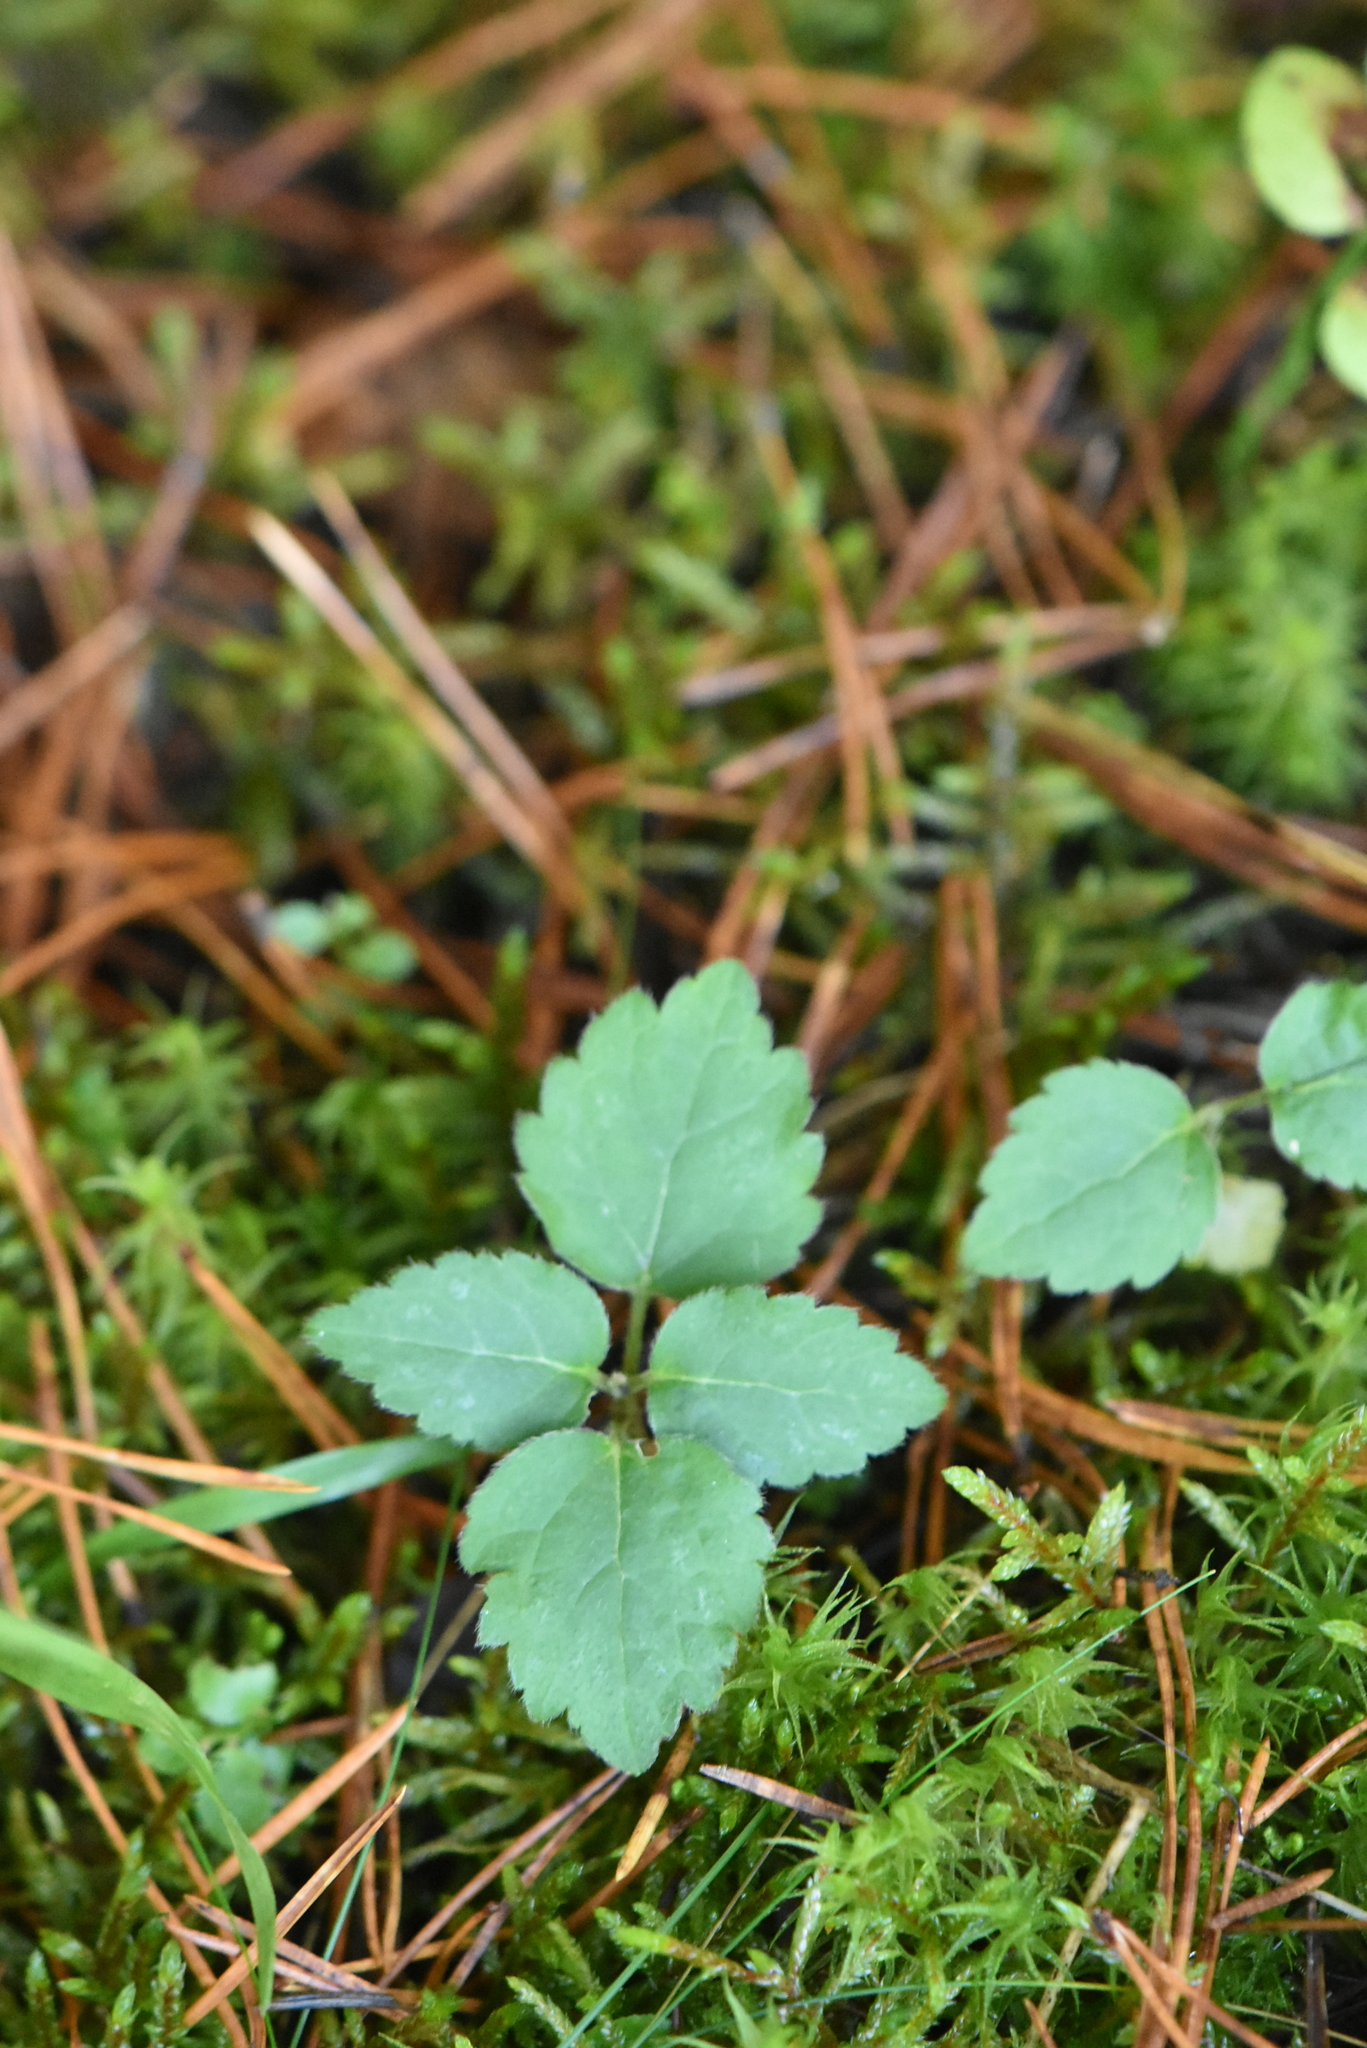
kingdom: Plantae
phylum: Tracheophyta
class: Magnoliopsida
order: Lamiales
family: Lamiaceae
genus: Lamium
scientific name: Lamium galeobdolon
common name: Yellow archangel
